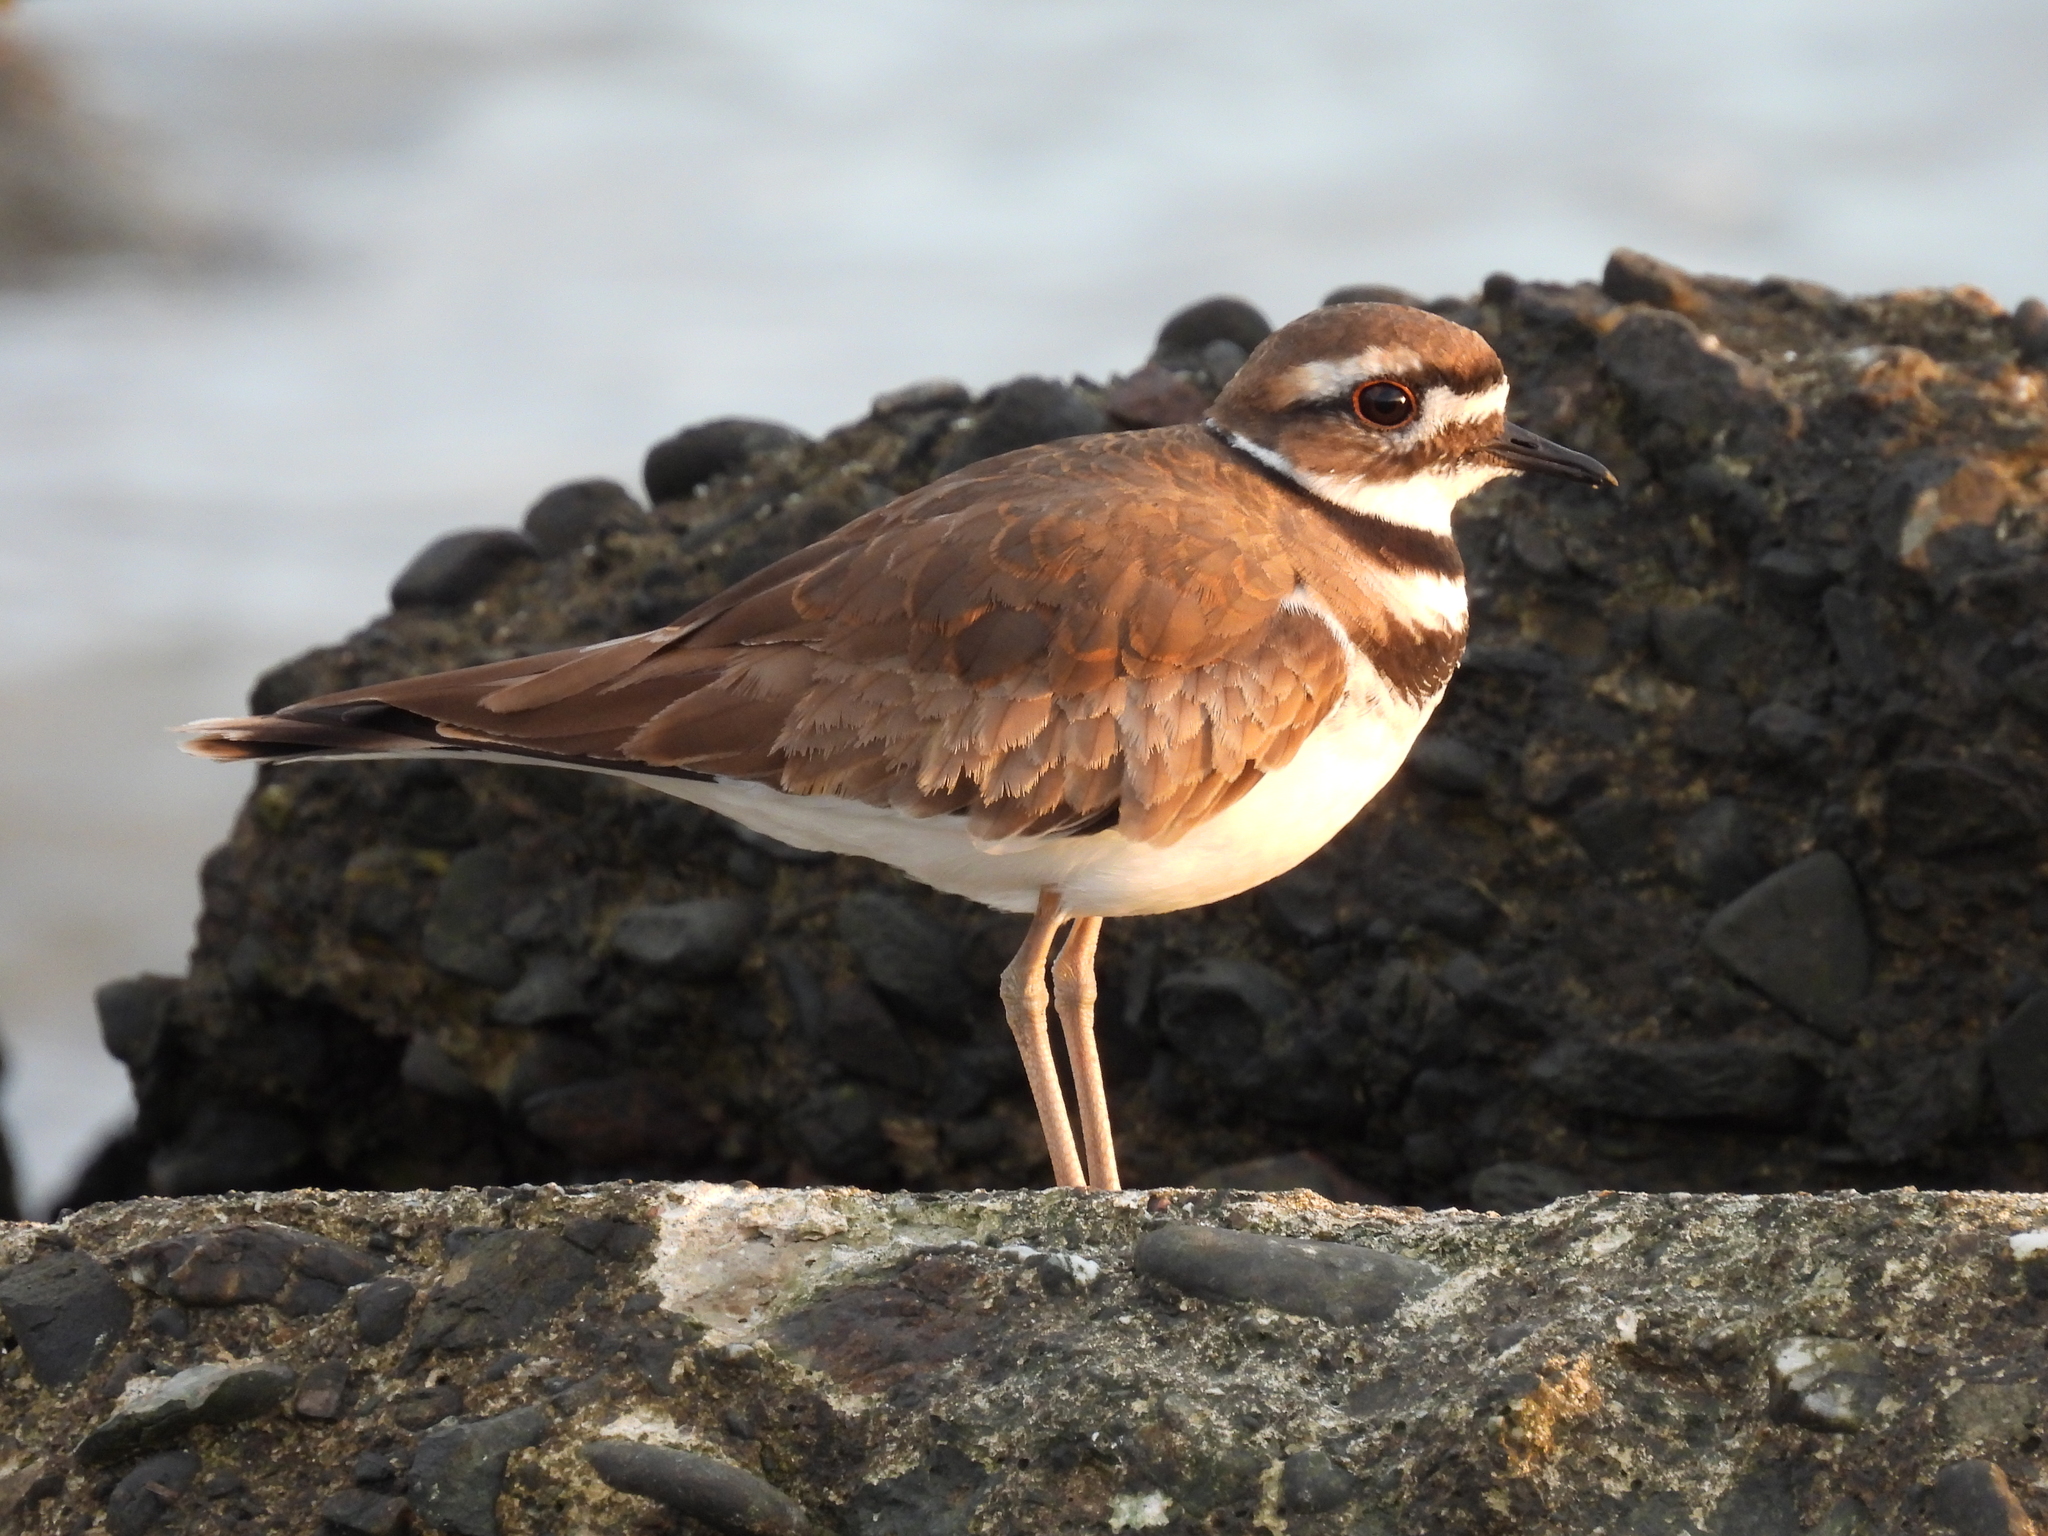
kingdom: Animalia
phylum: Chordata
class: Aves
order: Charadriiformes
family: Charadriidae
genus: Charadrius
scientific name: Charadrius vociferus
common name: Killdeer
